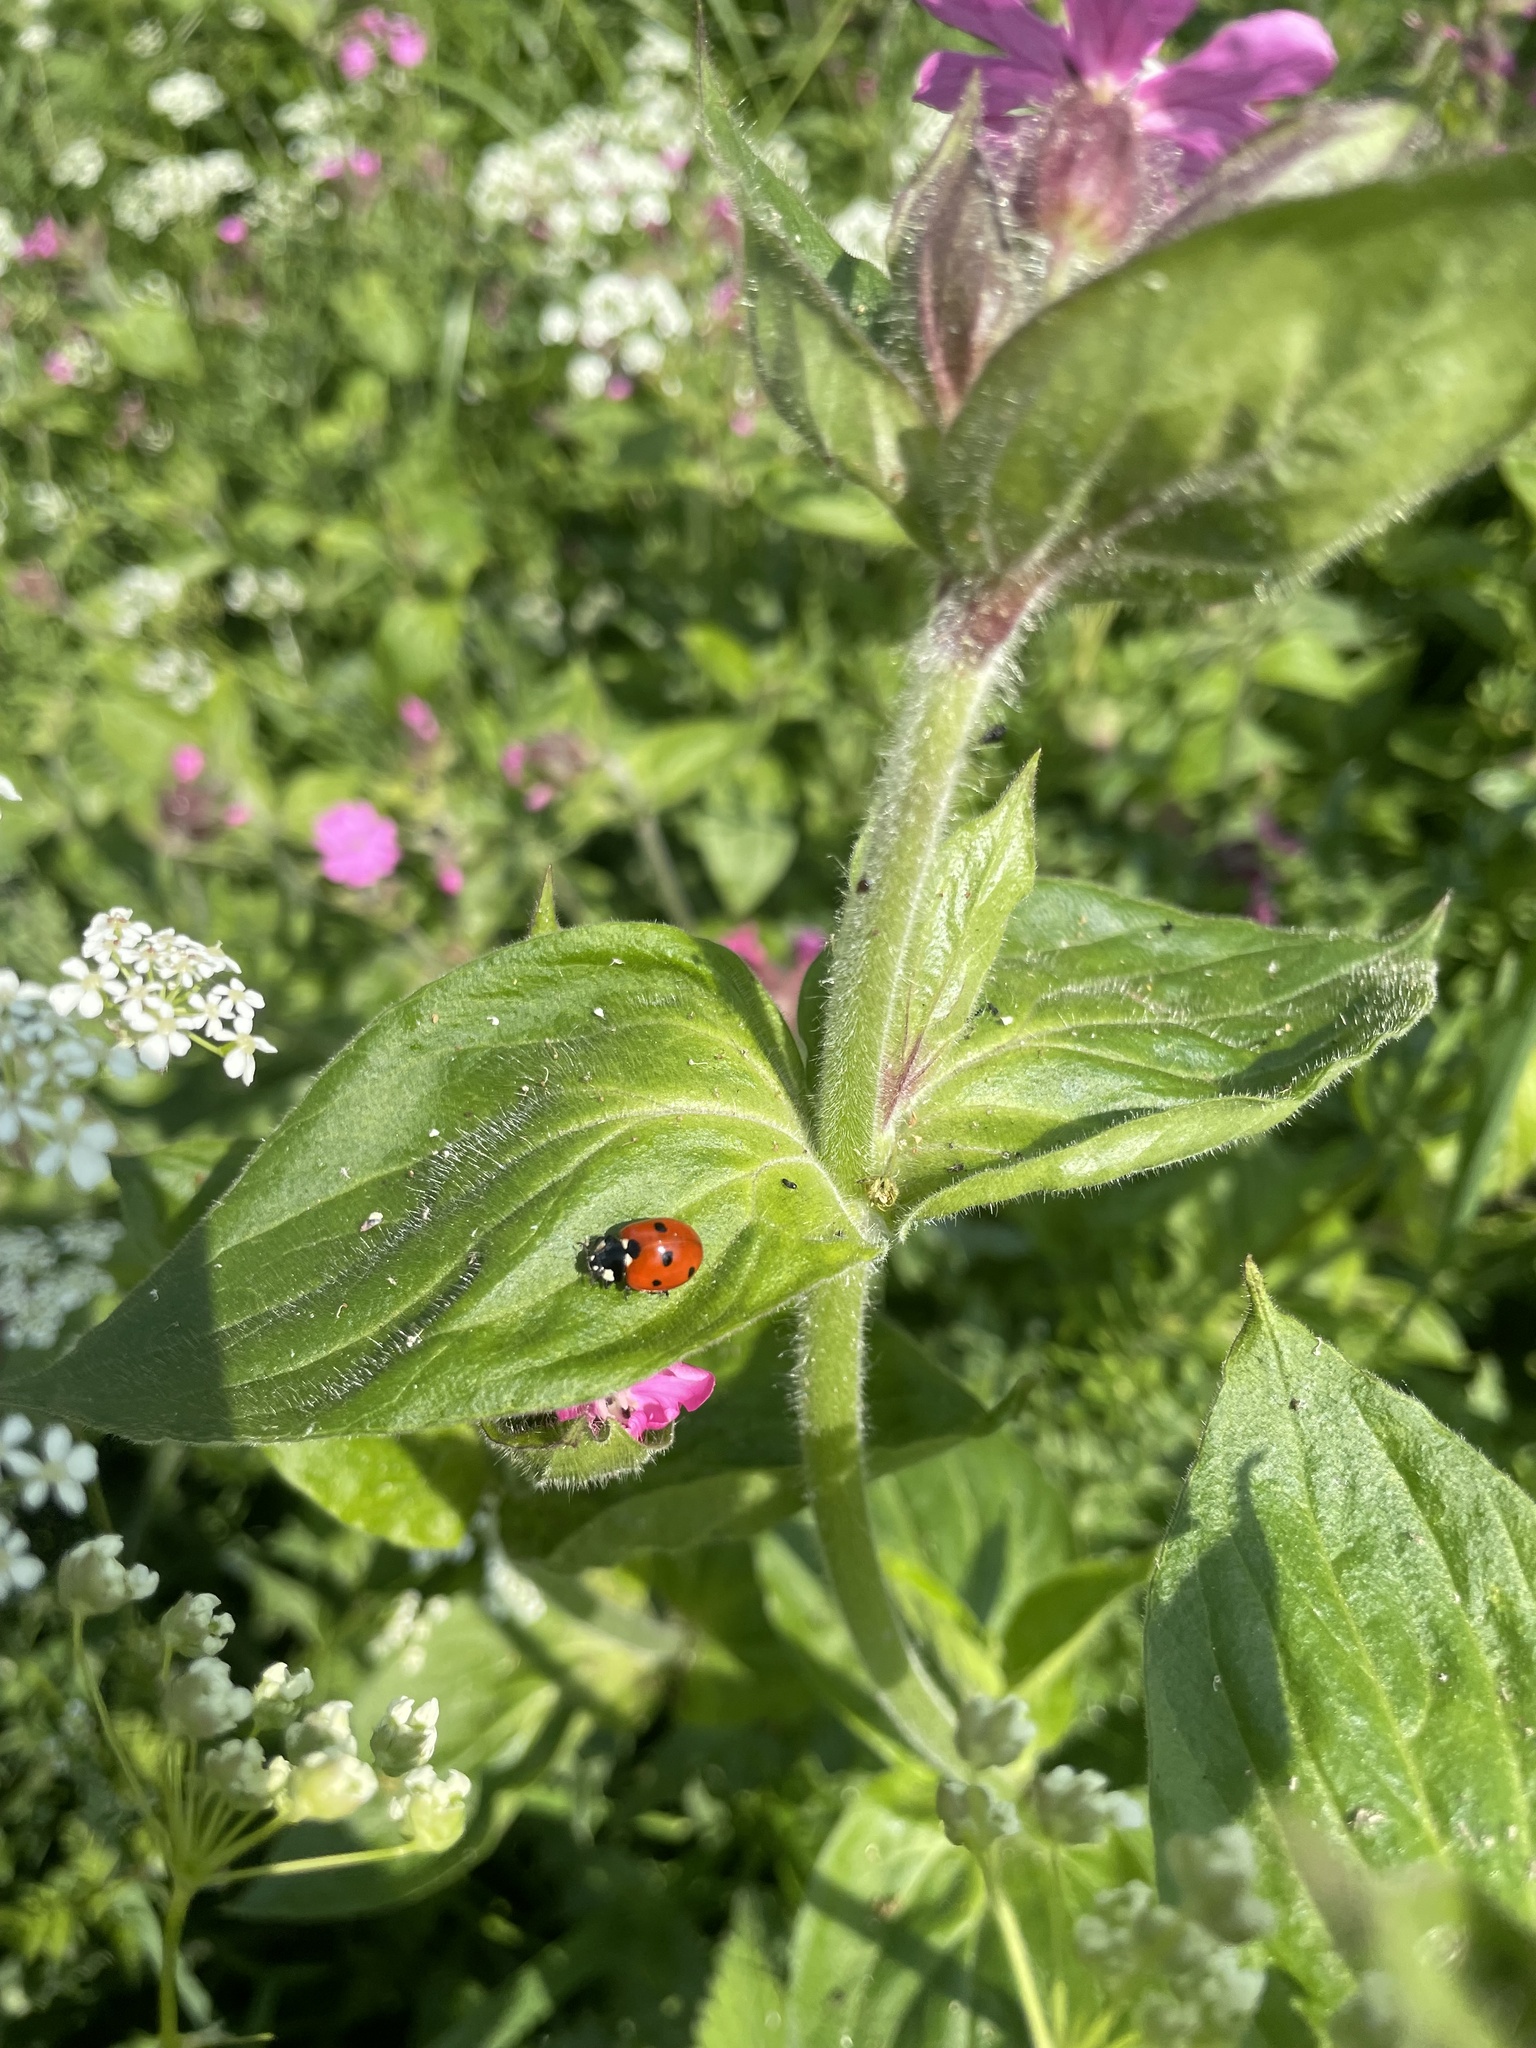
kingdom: Animalia
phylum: Arthropoda
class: Insecta
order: Coleoptera
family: Coccinellidae
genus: Coccinella
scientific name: Coccinella septempunctata
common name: Sevenspotted lady beetle
